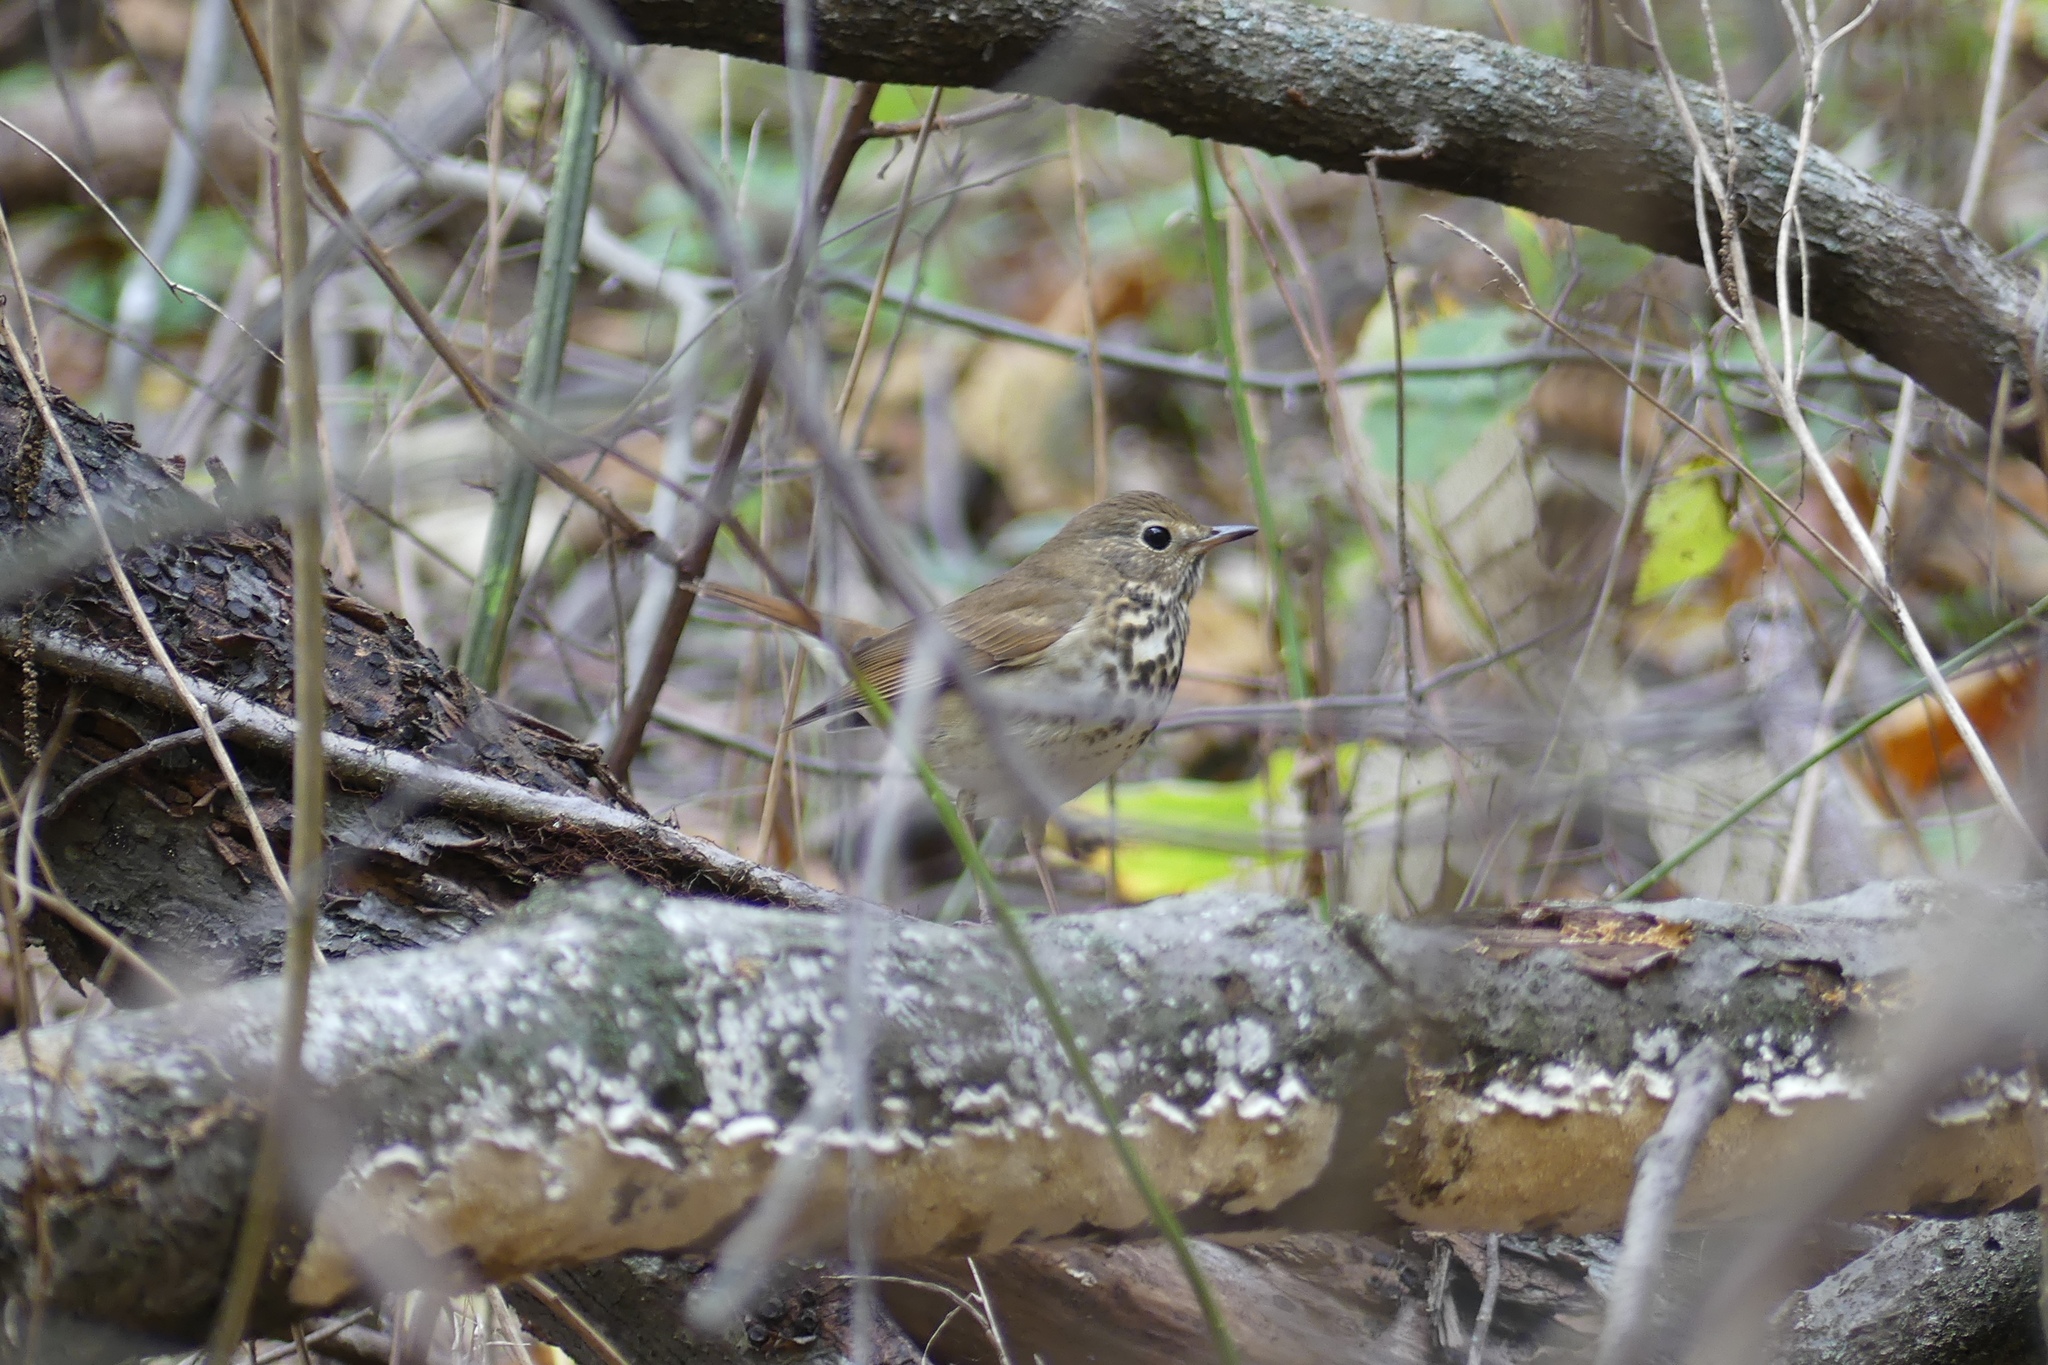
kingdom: Animalia
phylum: Chordata
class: Aves
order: Passeriformes
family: Turdidae
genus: Catharus
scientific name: Catharus guttatus
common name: Hermit thrush
